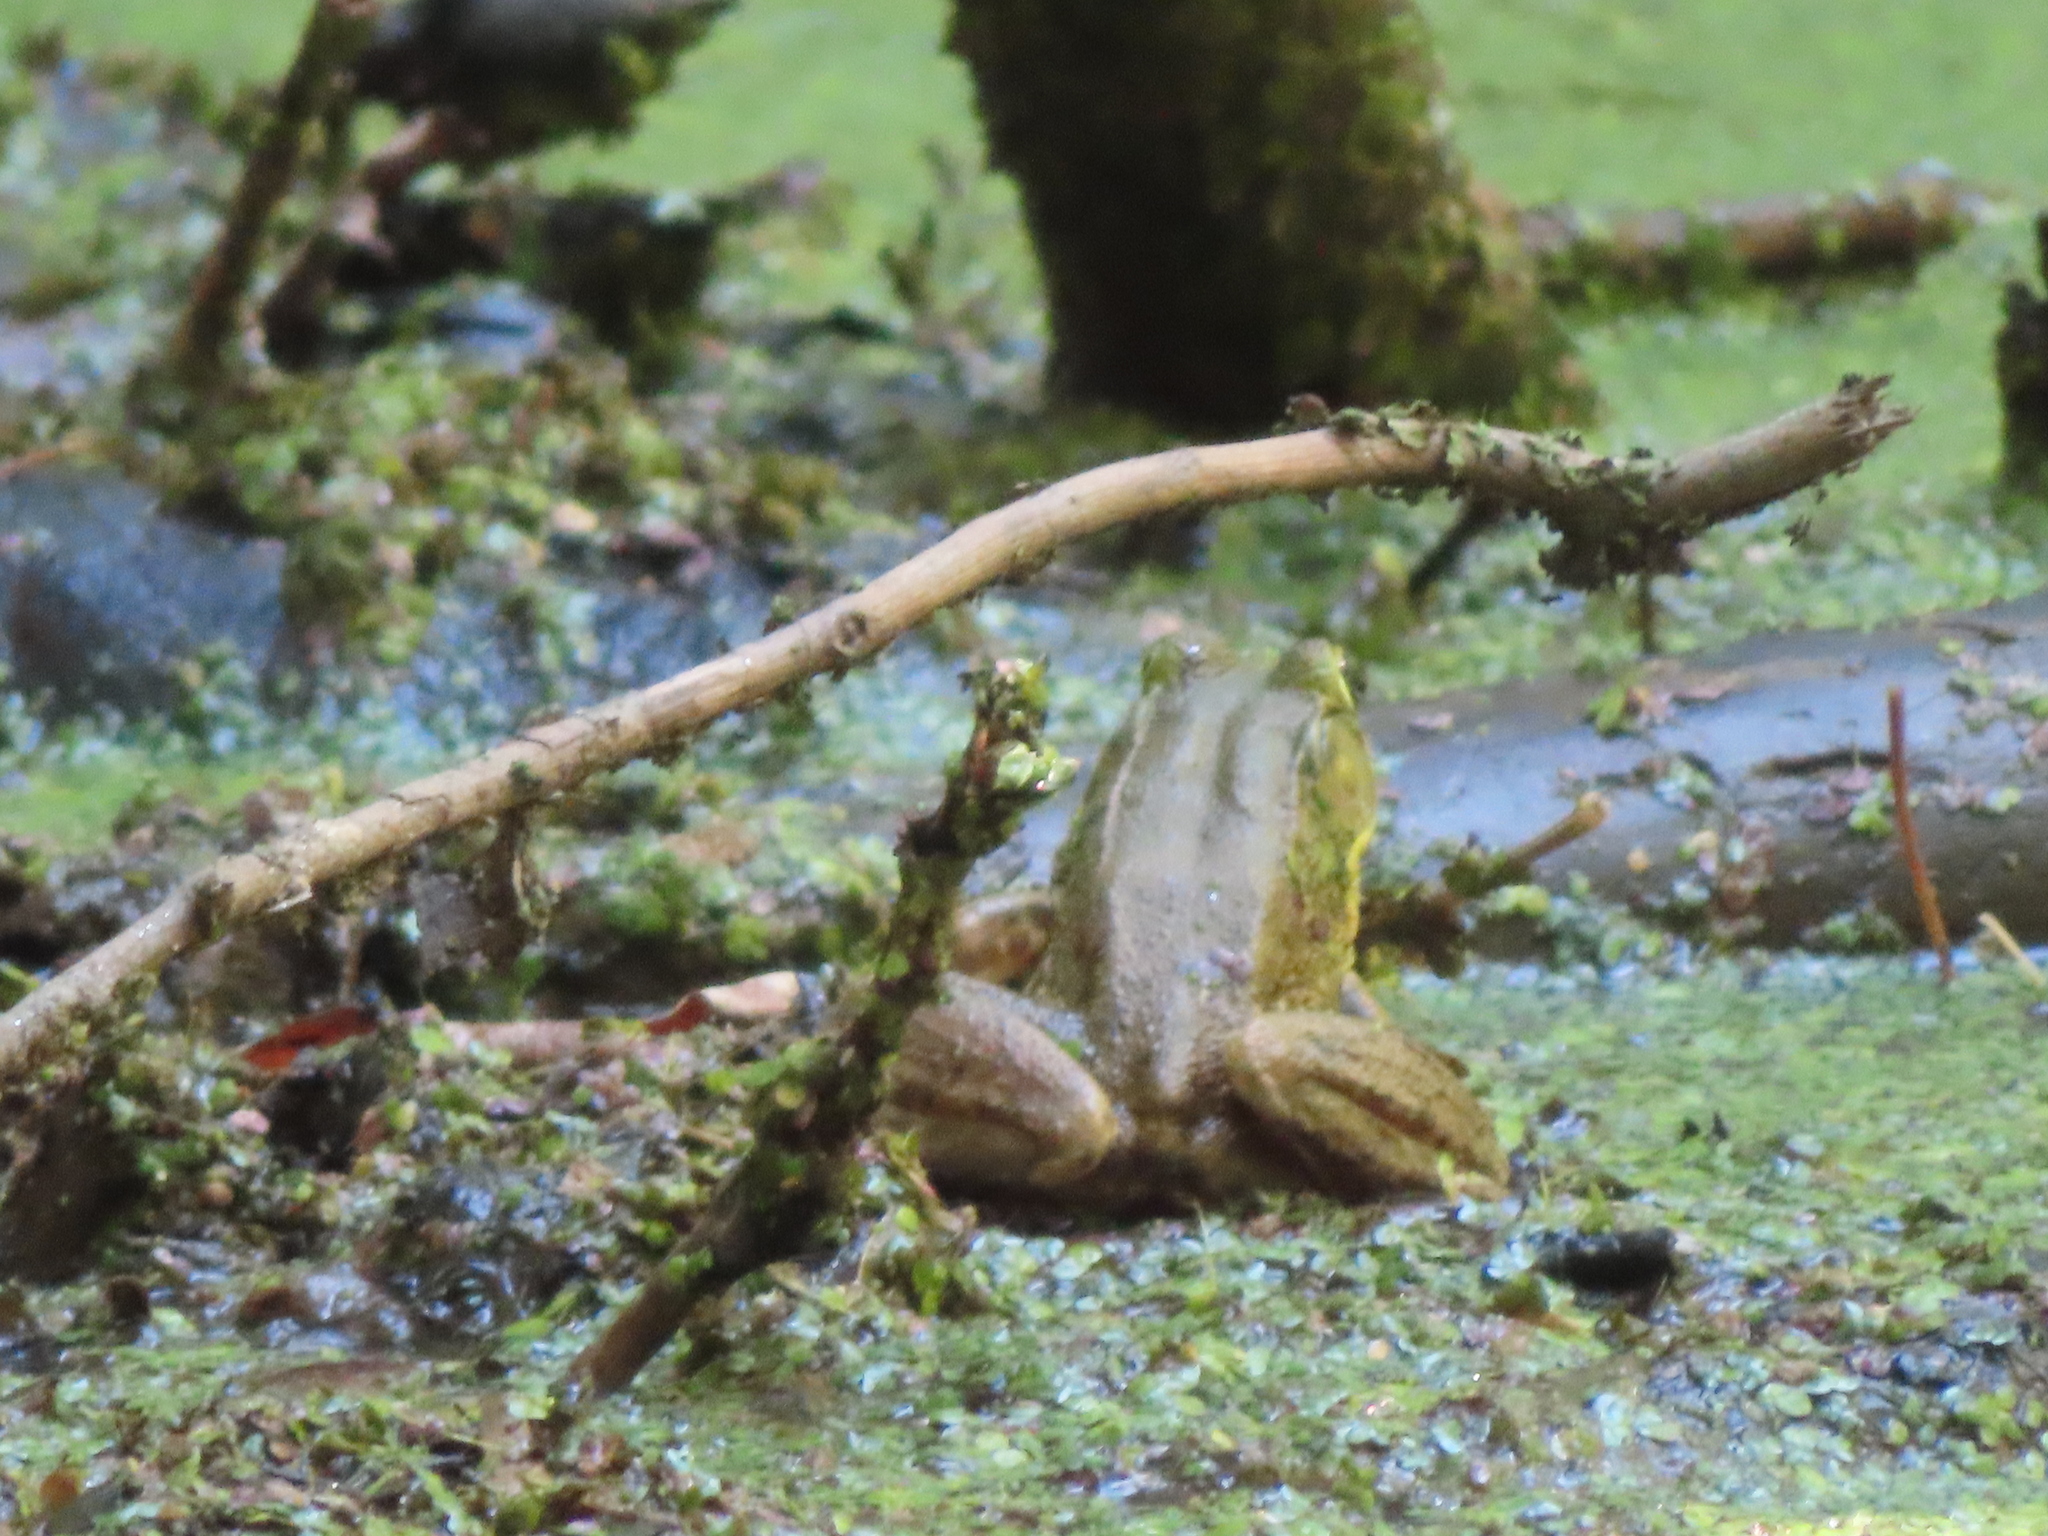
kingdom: Animalia
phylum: Chordata
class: Amphibia
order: Anura
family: Ranidae
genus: Lithobates
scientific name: Lithobates clamitans
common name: Green frog
